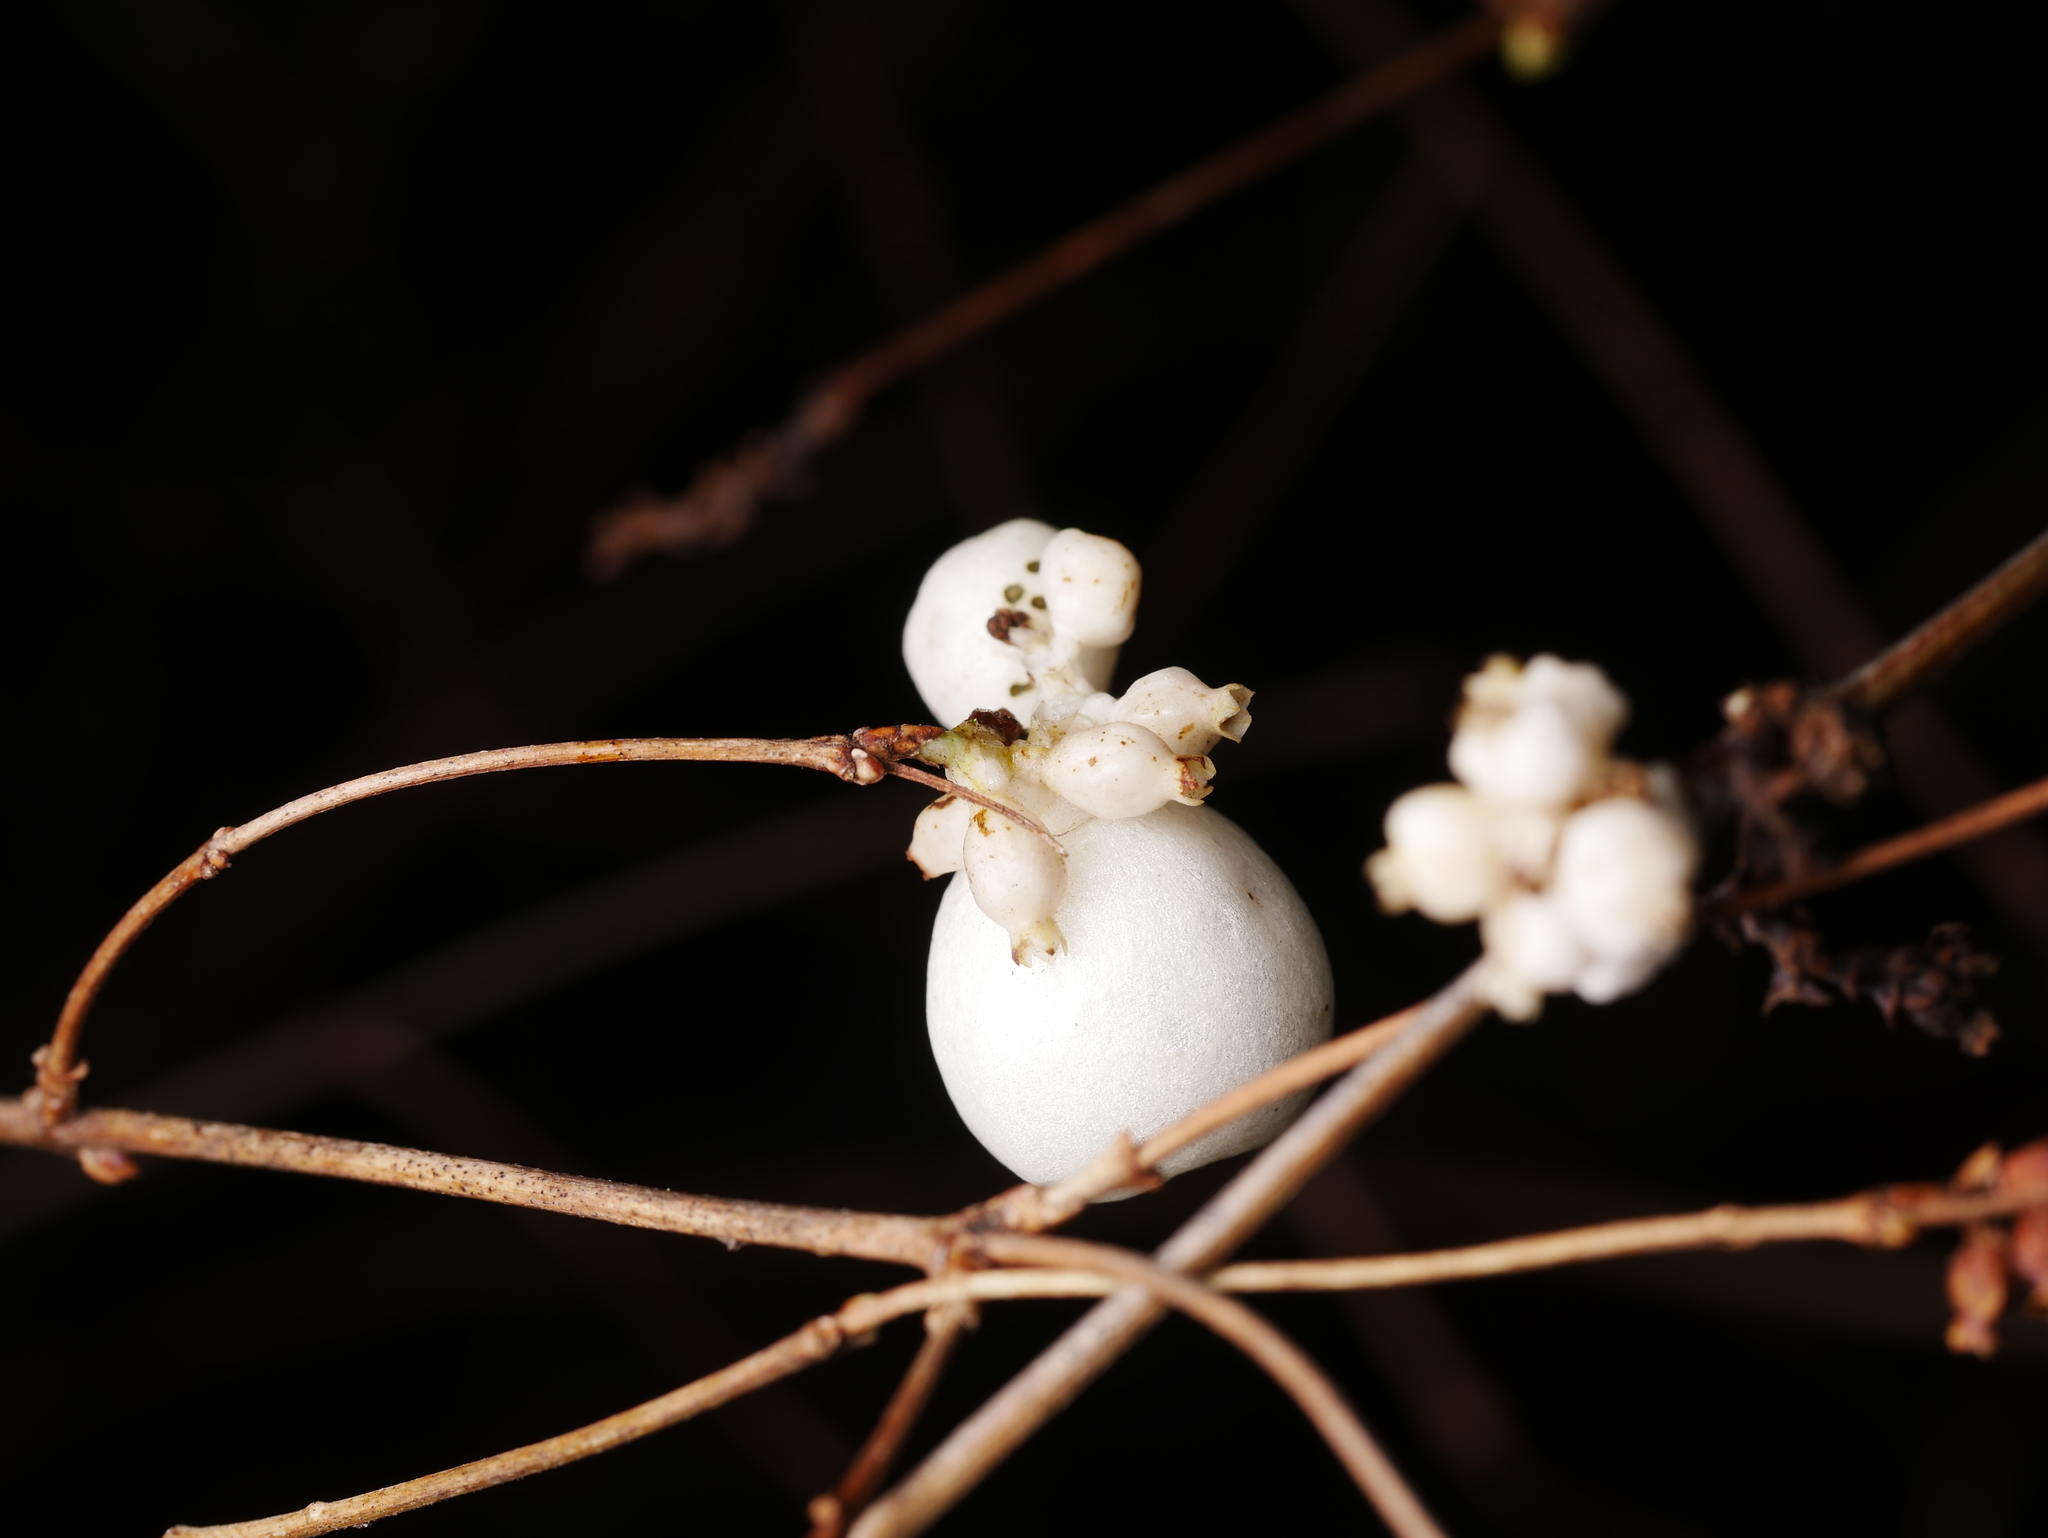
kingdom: Plantae
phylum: Tracheophyta
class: Magnoliopsida
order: Dipsacales
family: Caprifoliaceae
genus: Symphoricarpos
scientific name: Symphoricarpos albus
